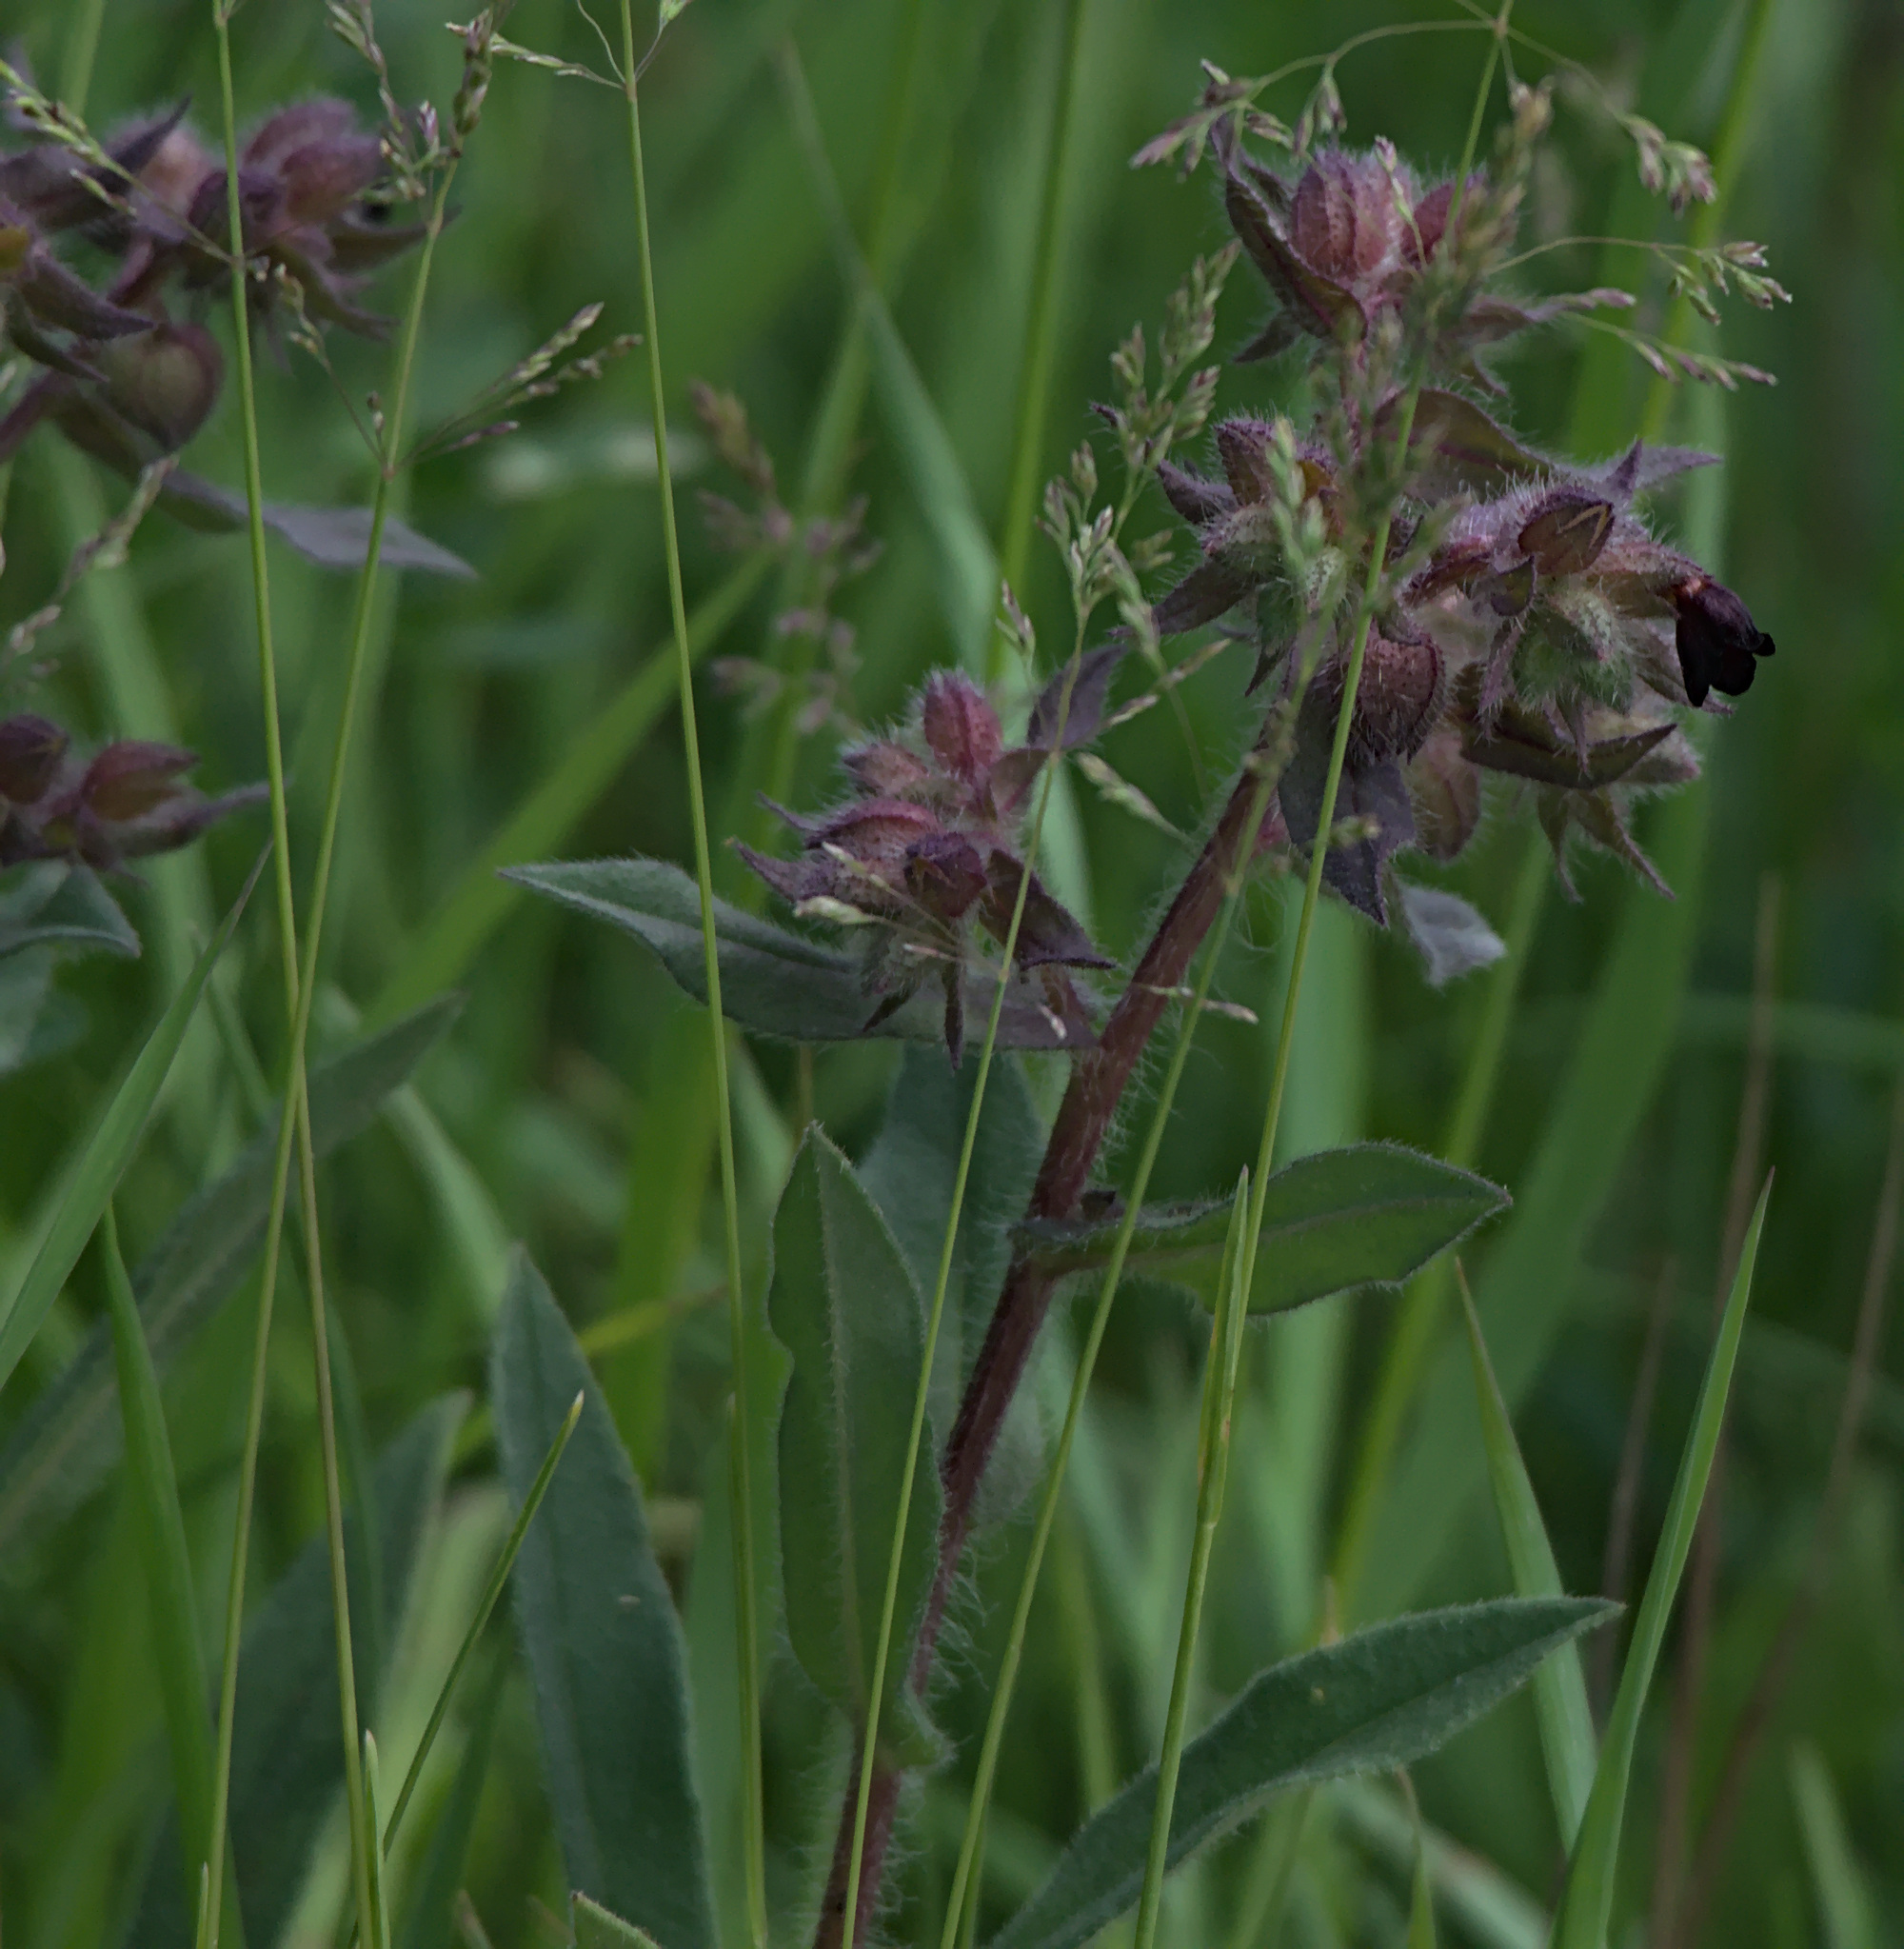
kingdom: Plantae
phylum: Tracheophyta
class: Magnoliopsida
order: Boraginales
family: Boraginaceae
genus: Nonea
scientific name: Nonea pulla
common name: Brown nonea
